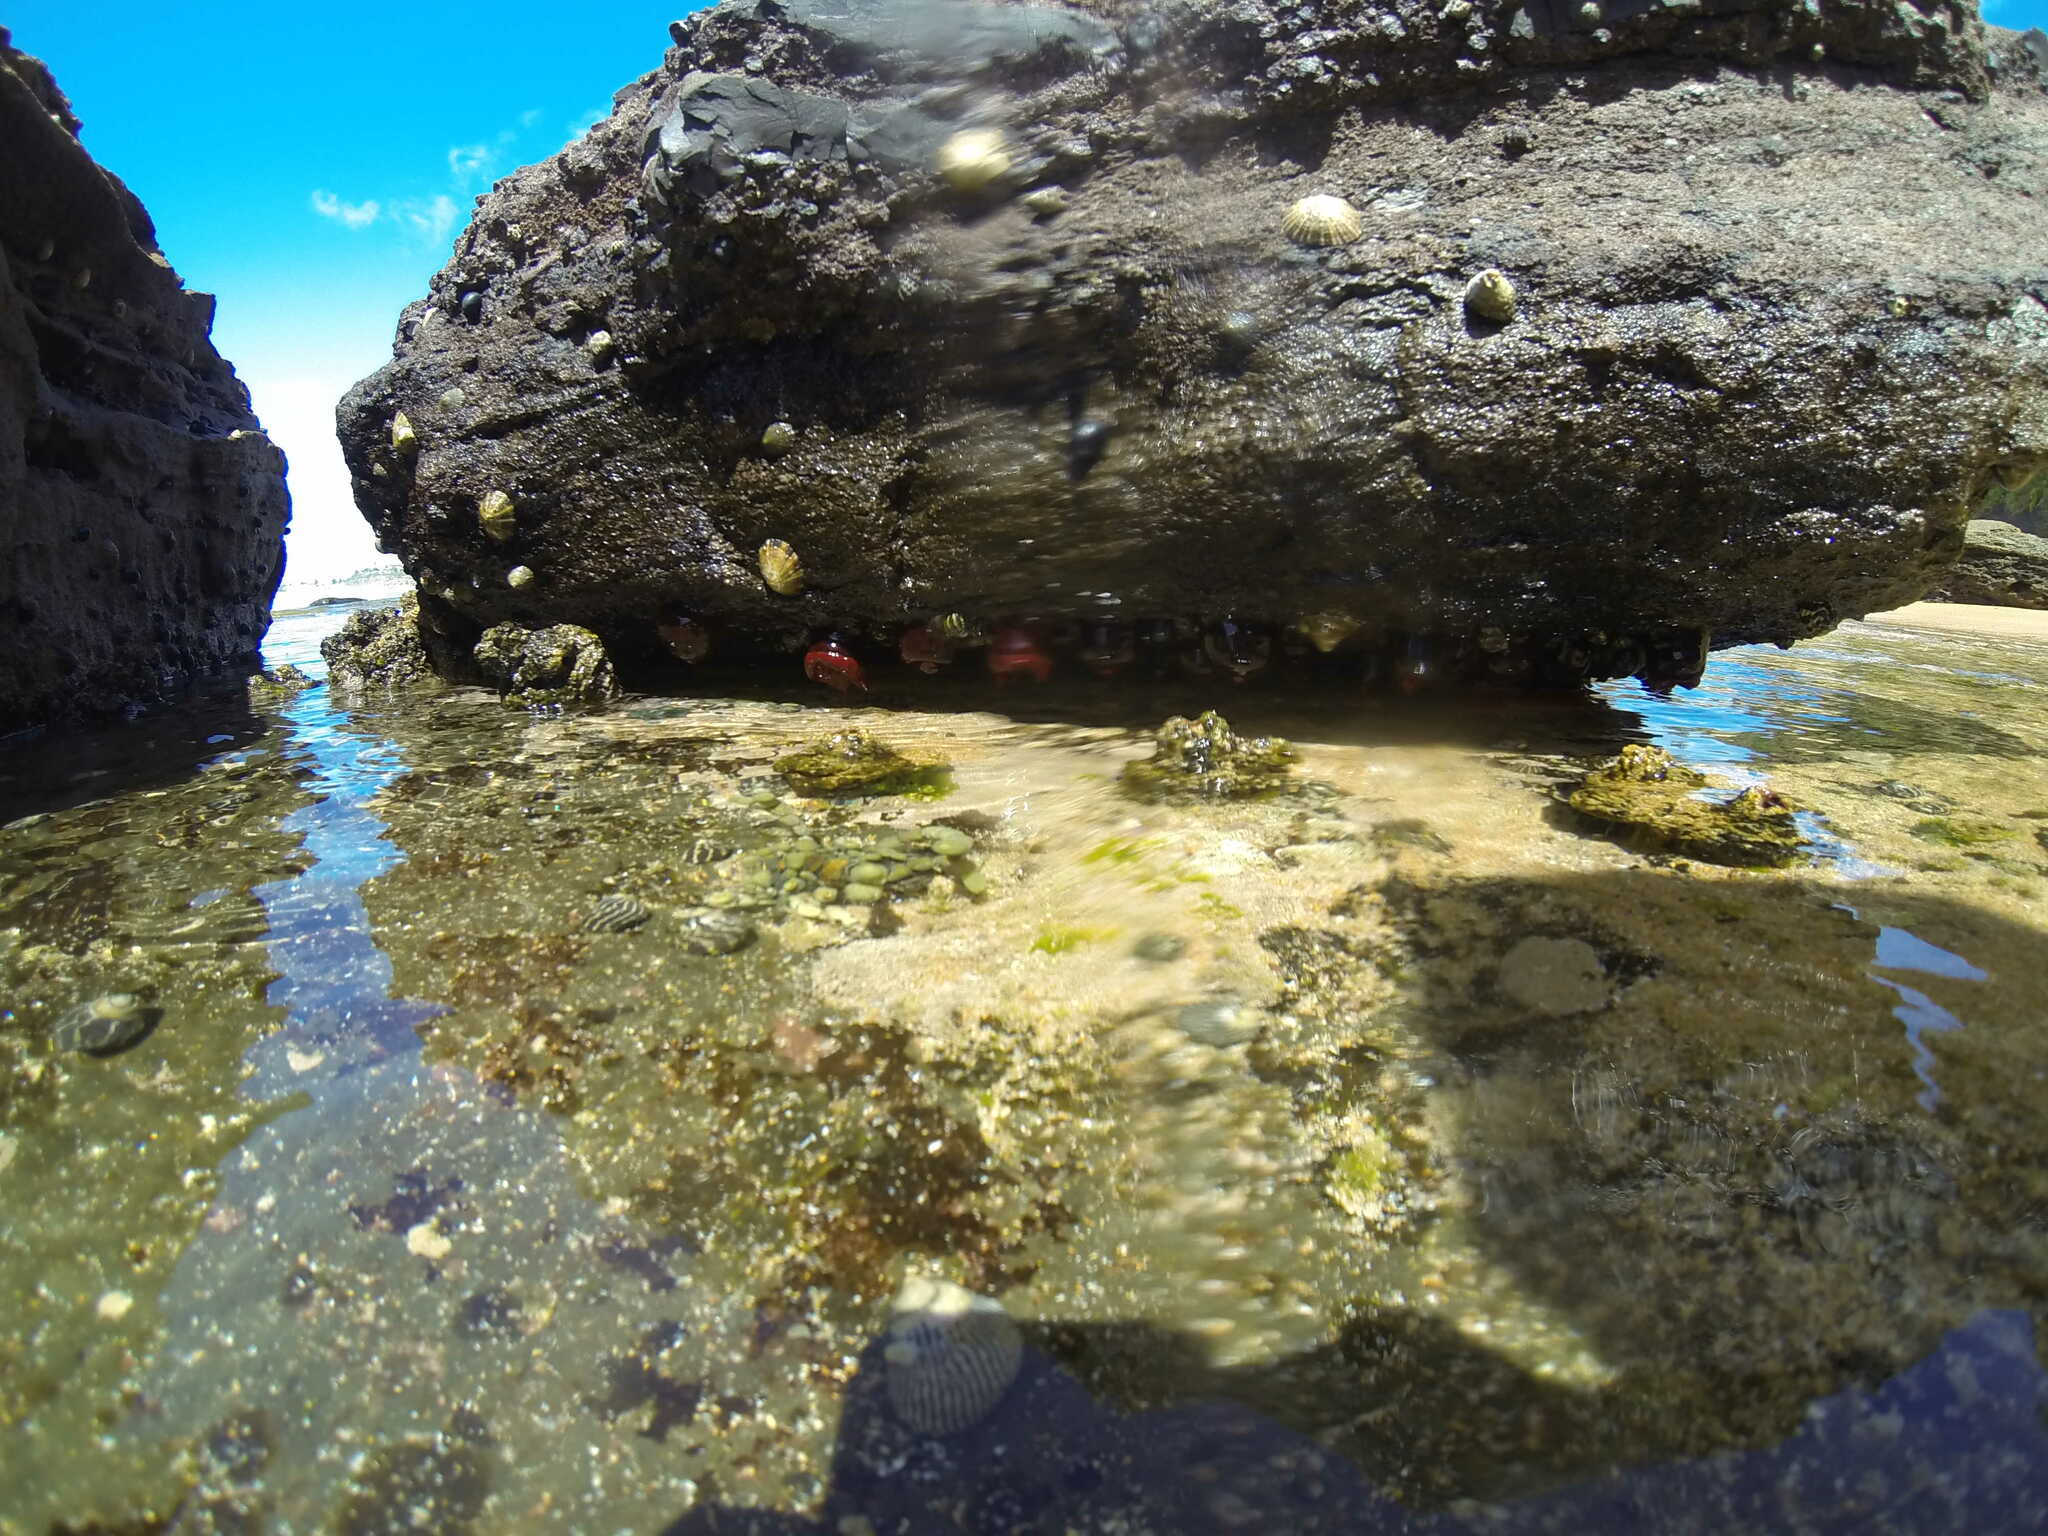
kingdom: Animalia
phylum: Cnidaria
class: Anthozoa
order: Actiniaria
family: Actiniidae
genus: Actinia
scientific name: Actinia tenebrosa
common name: Waratah anemone
